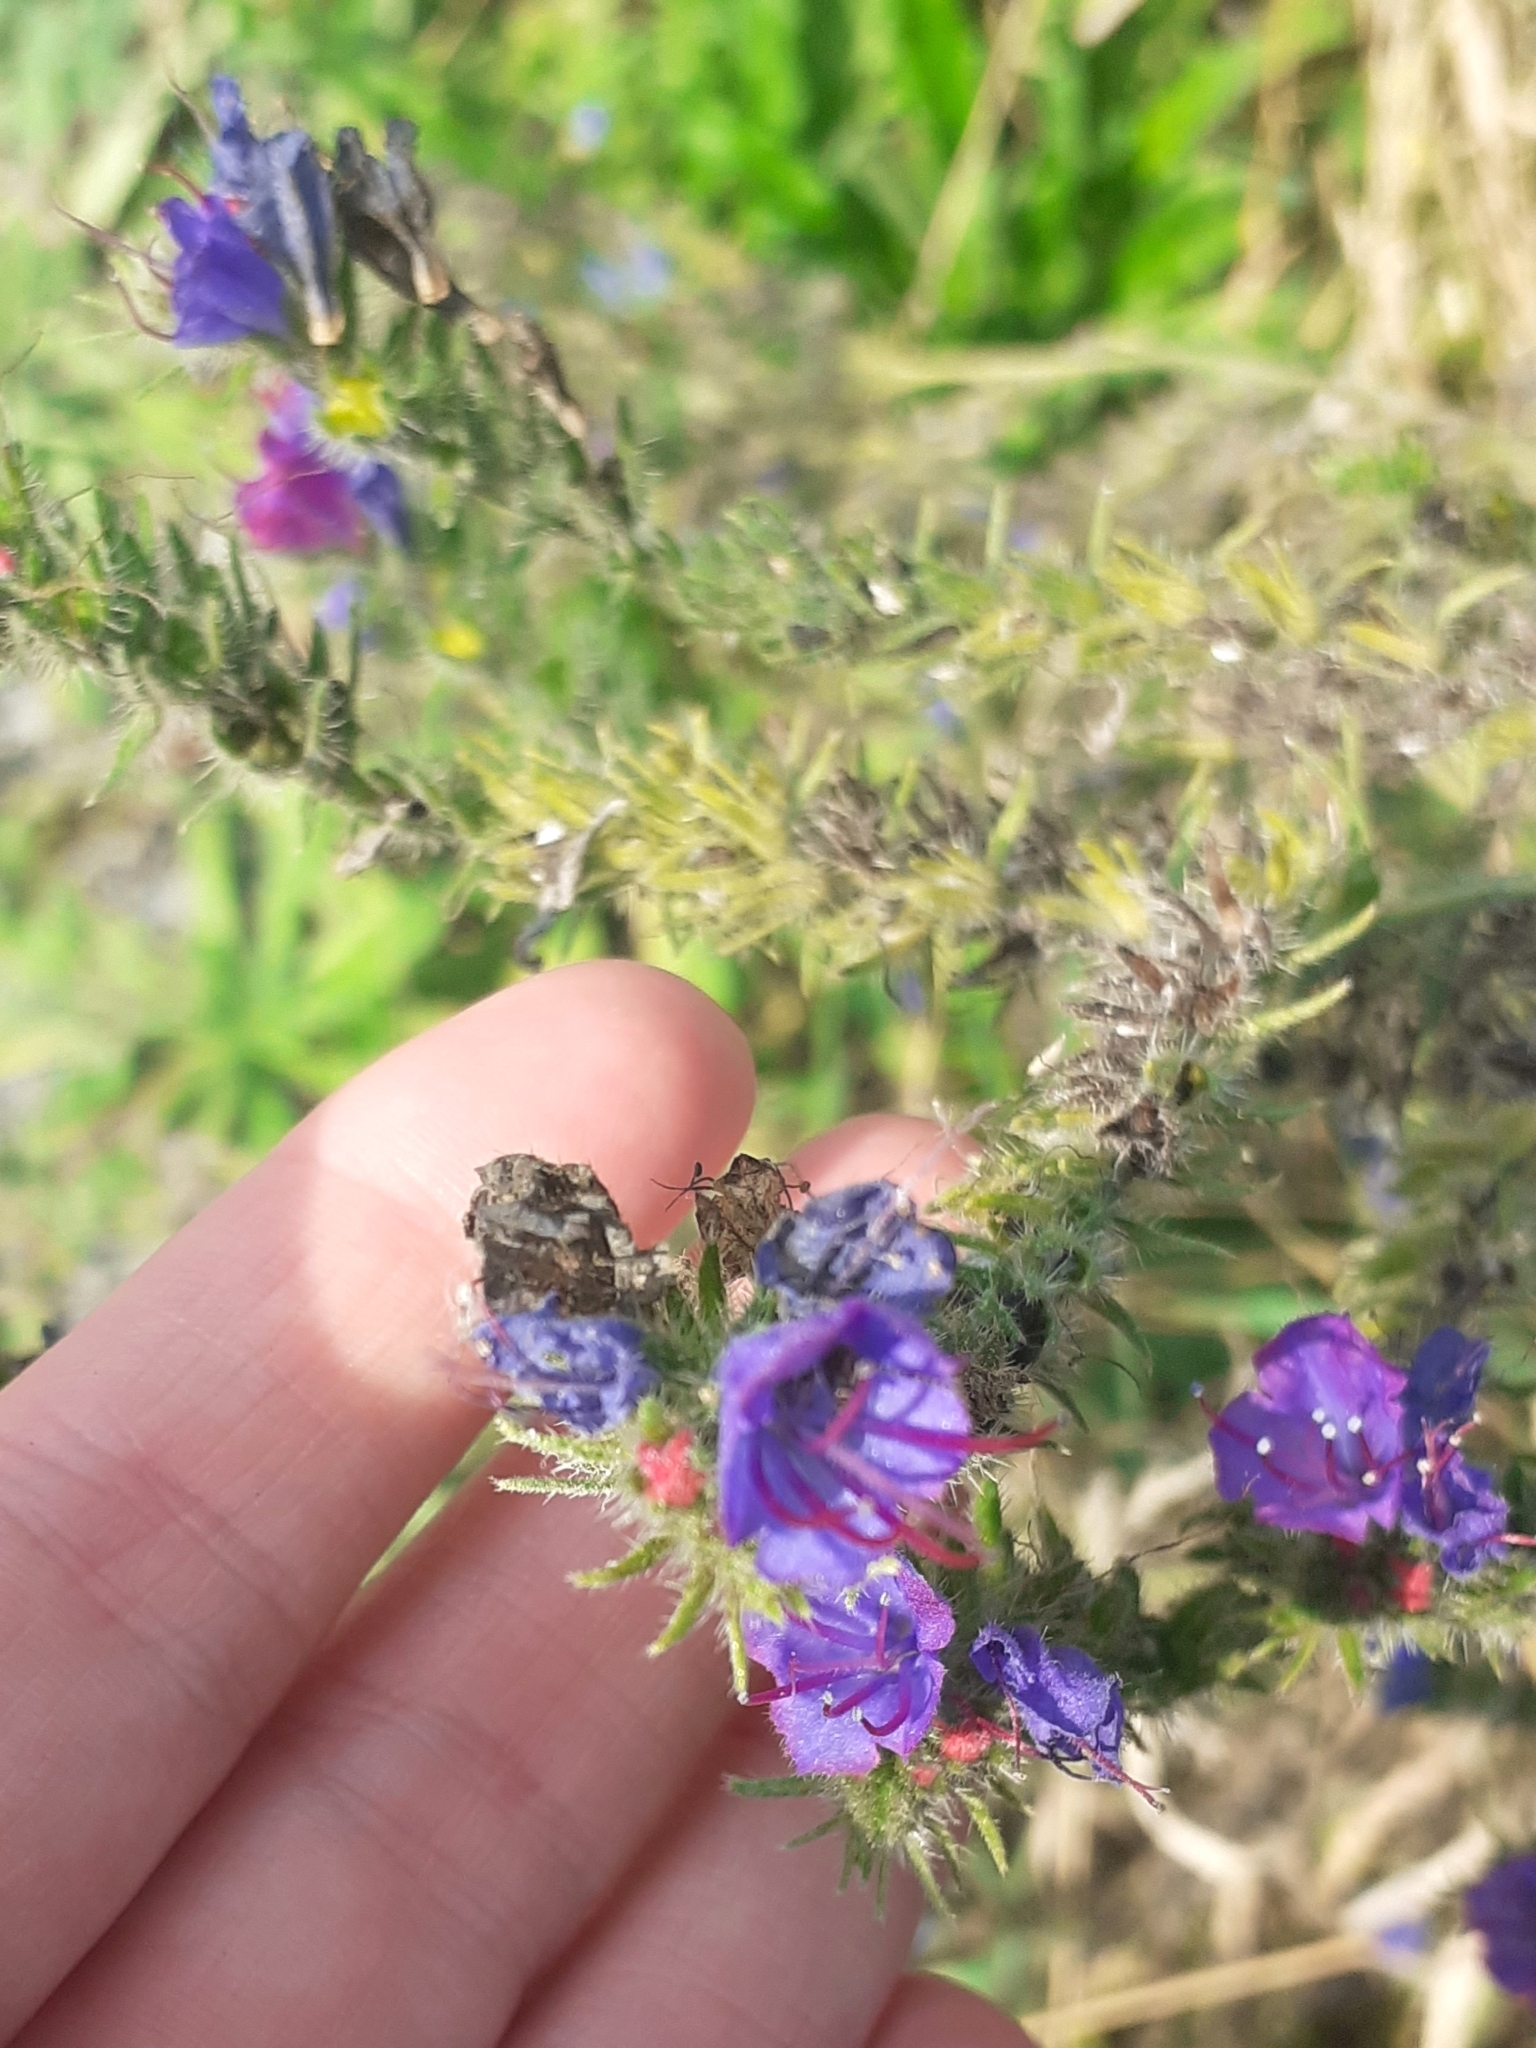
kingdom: Plantae
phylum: Tracheophyta
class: Magnoliopsida
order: Boraginales
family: Boraginaceae
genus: Echium
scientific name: Echium vulgare
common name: Common viper's bugloss
